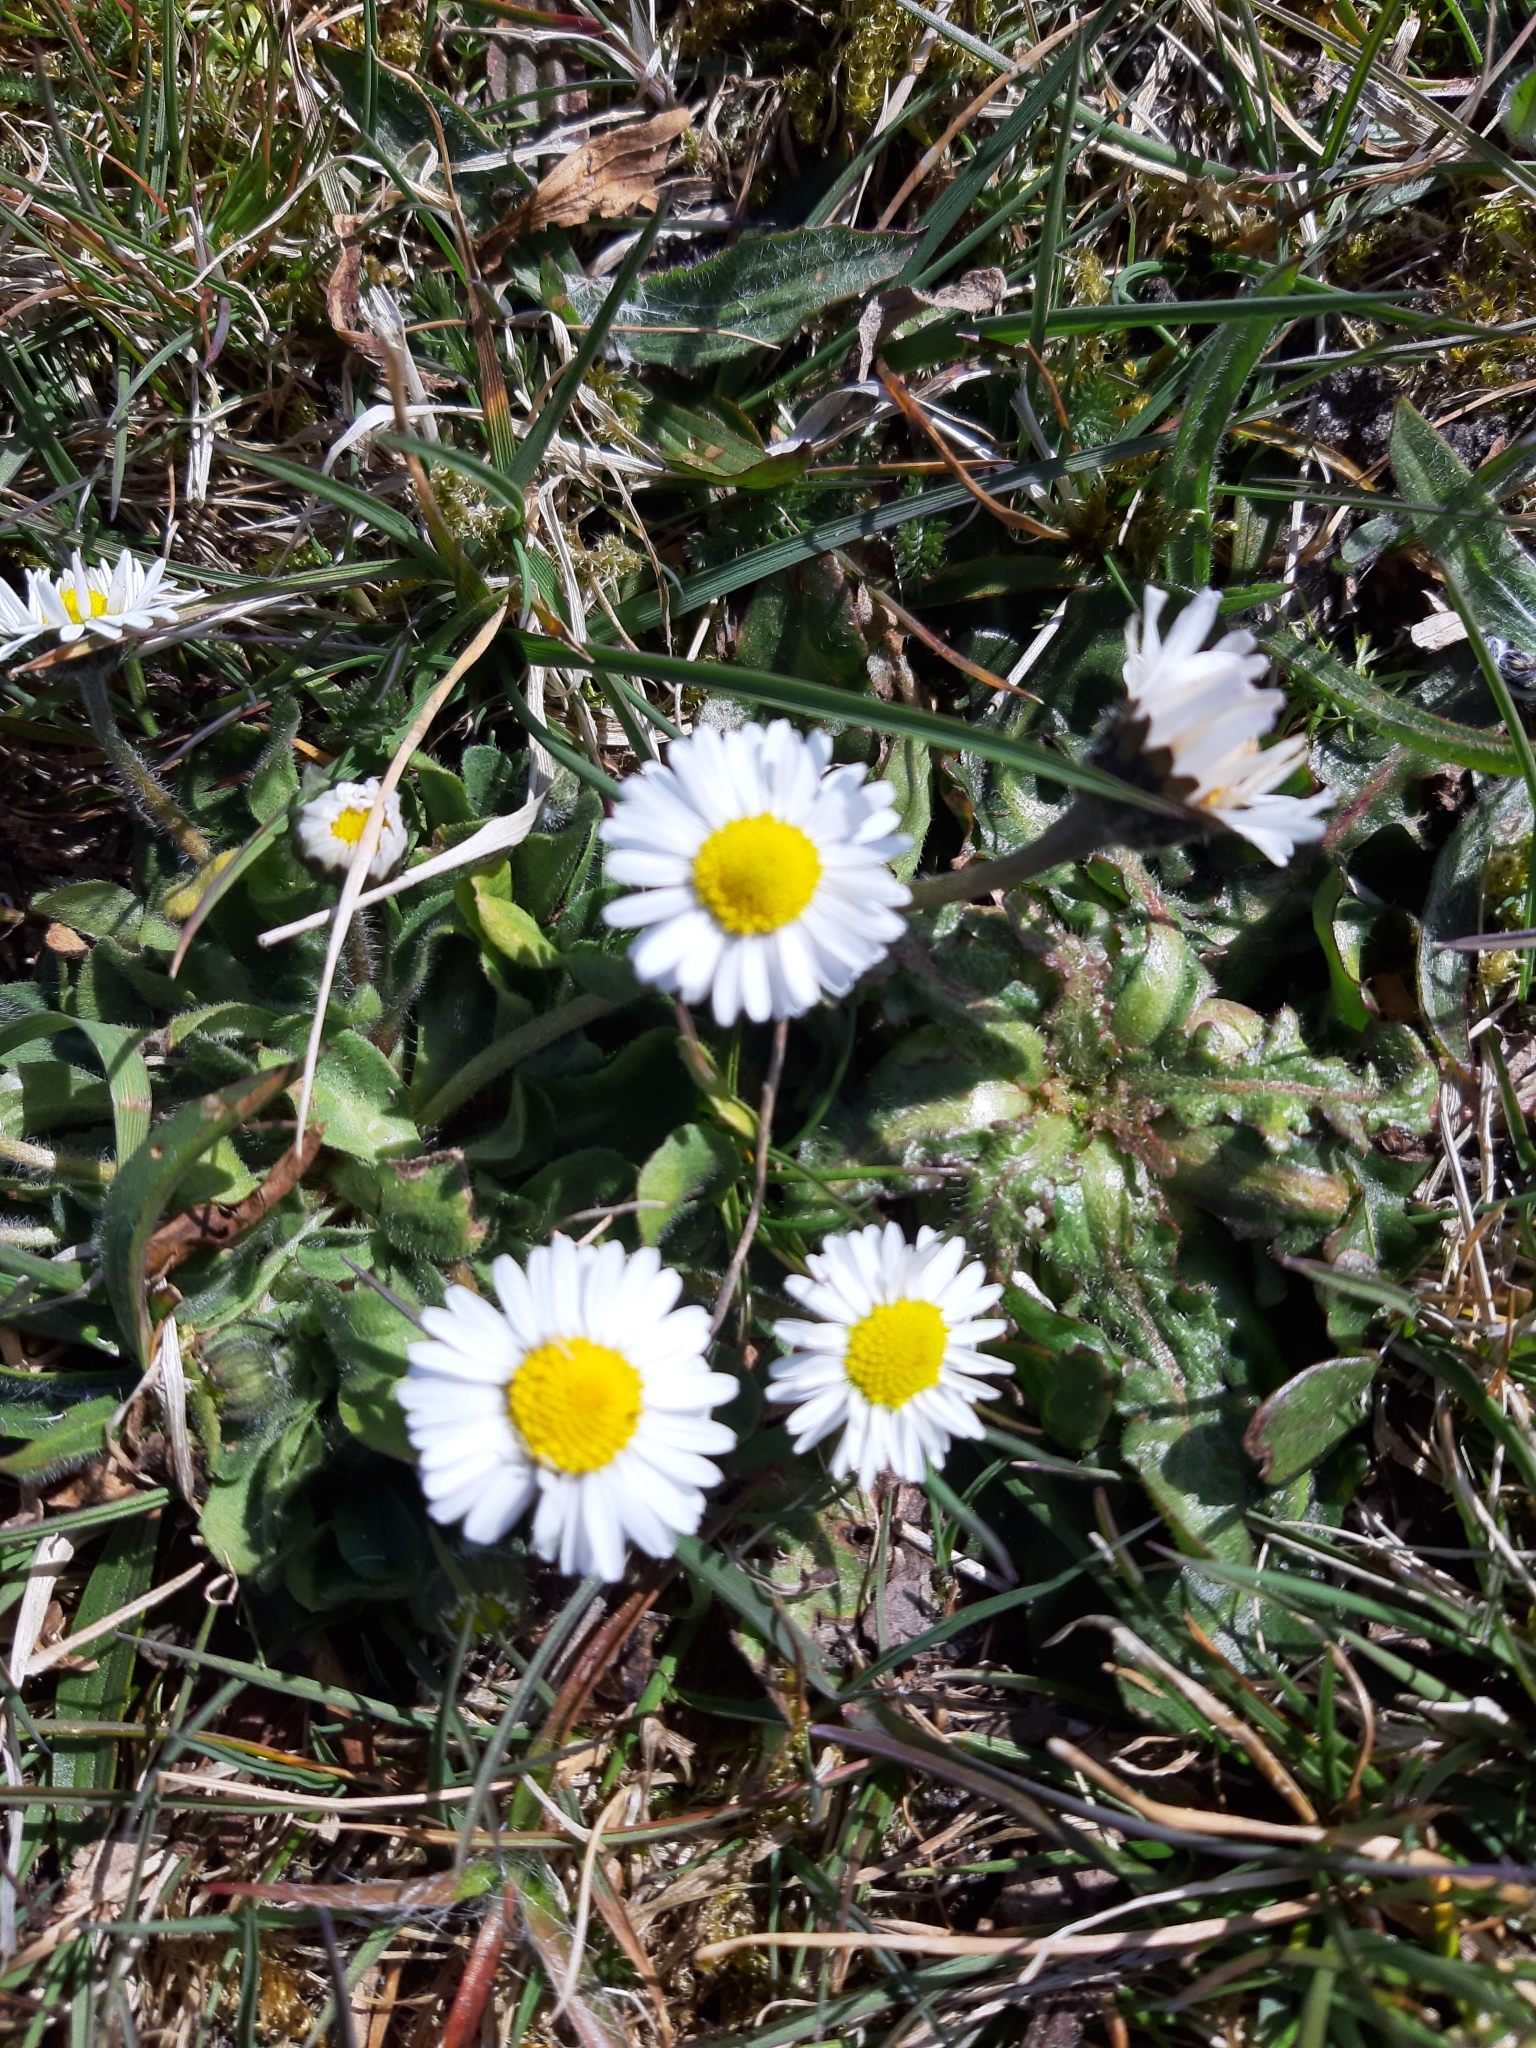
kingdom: Plantae
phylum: Tracheophyta
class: Magnoliopsida
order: Asterales
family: Asteraceae
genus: Bellis
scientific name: Bellis perennis
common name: Lawndaisy
